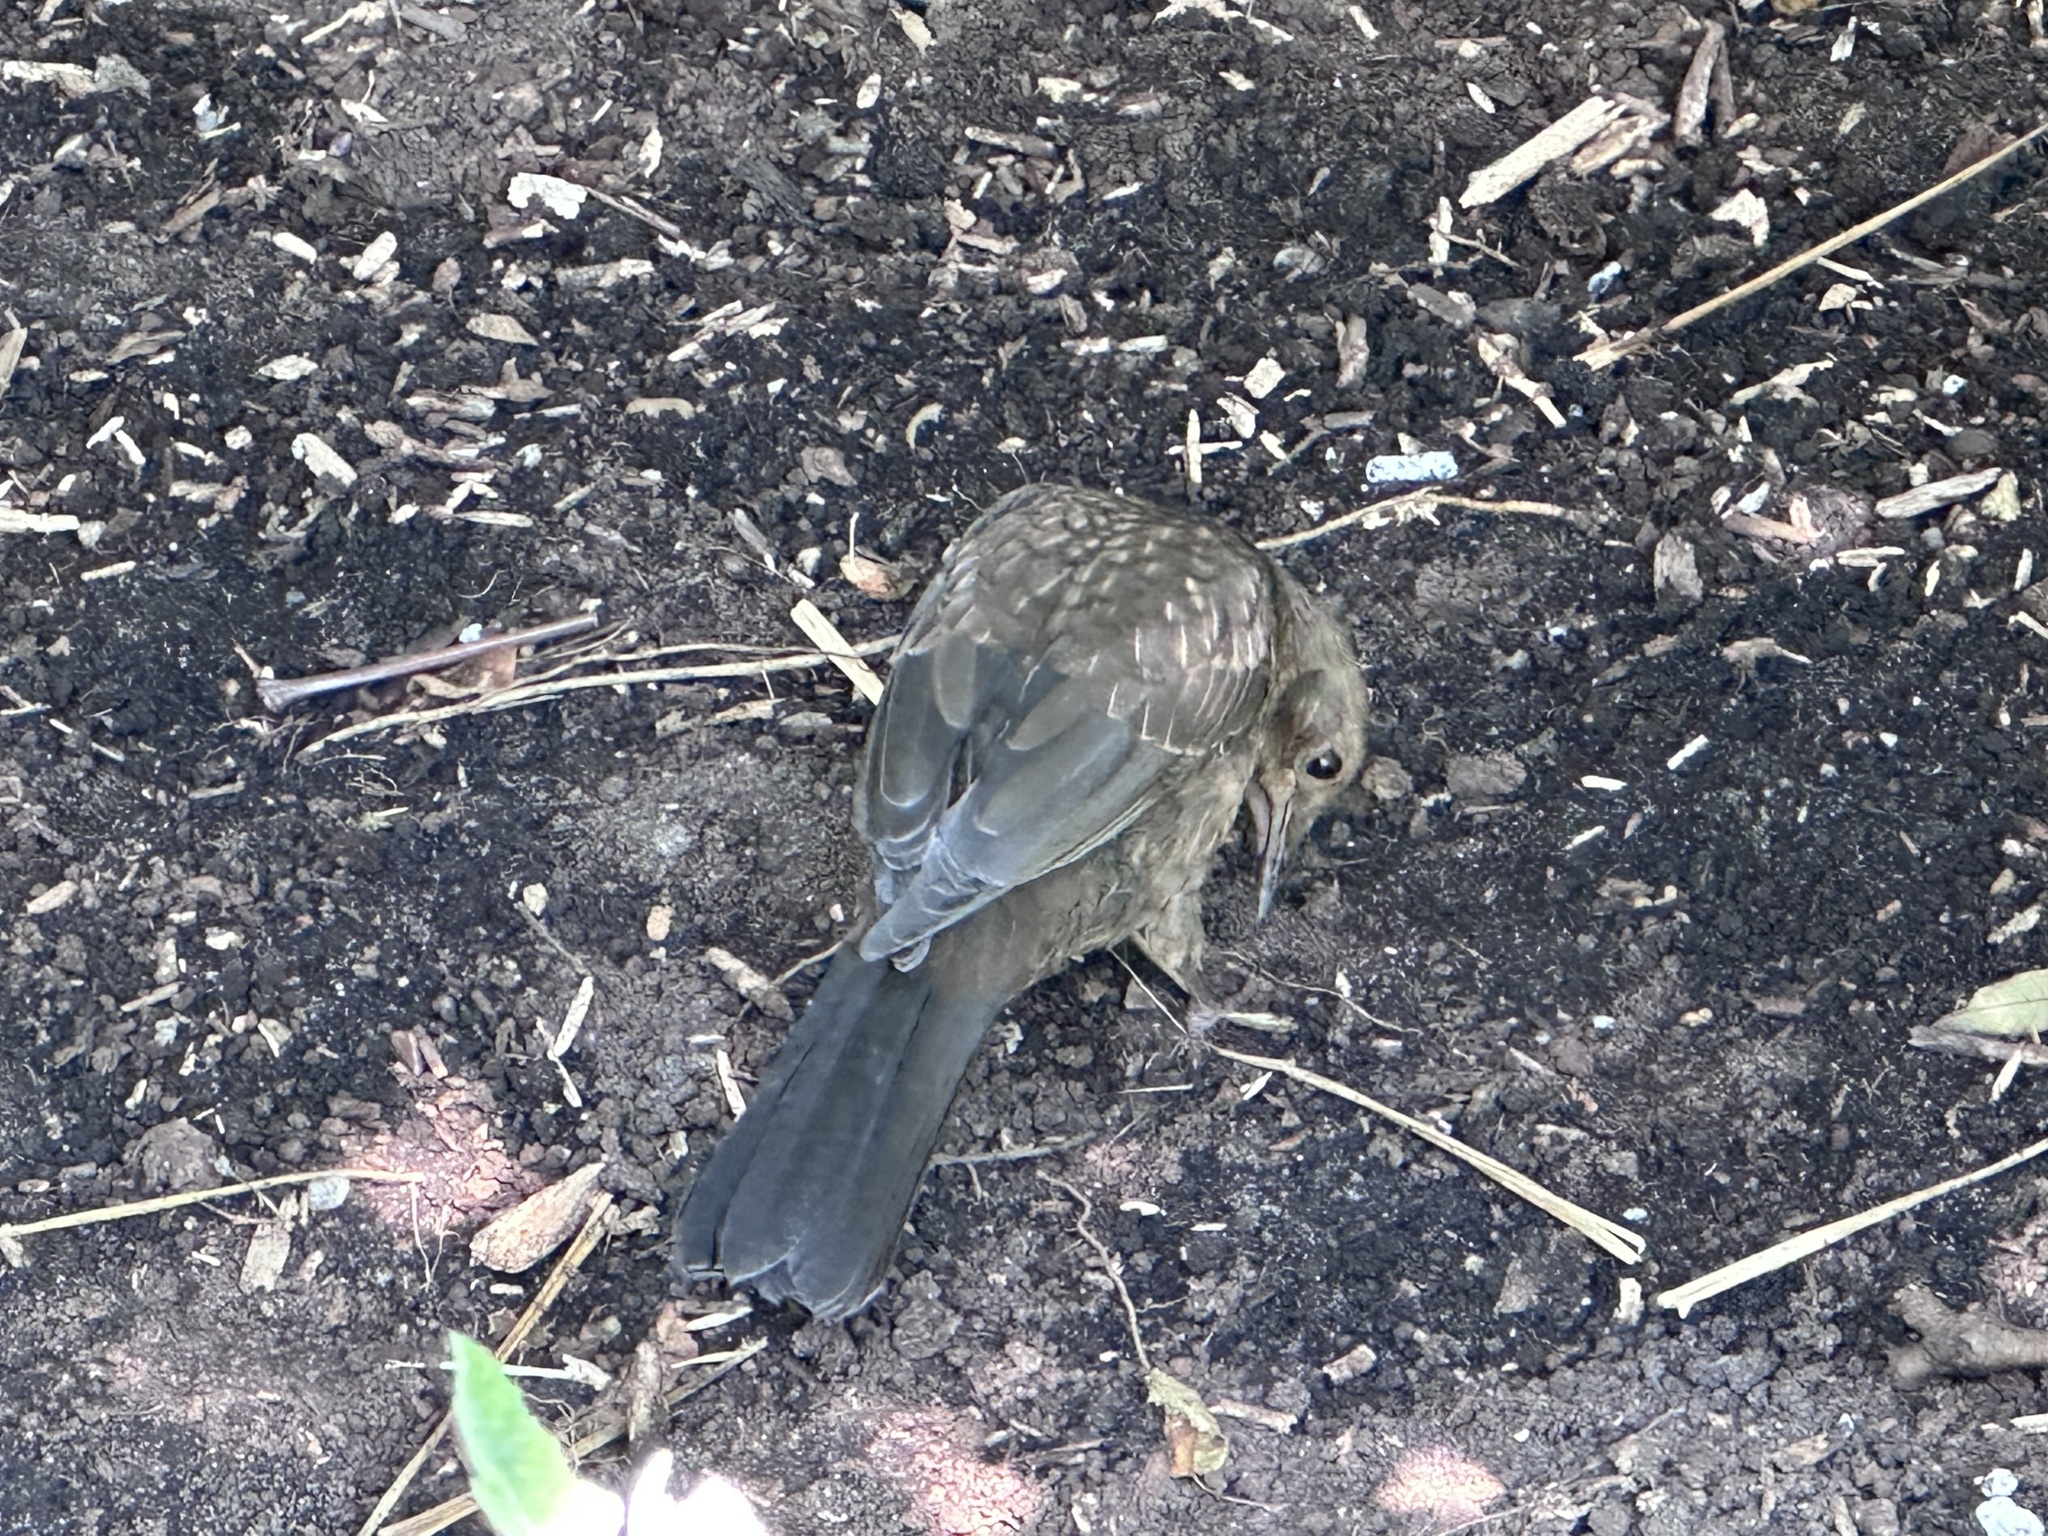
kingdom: Animalia
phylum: Chordata
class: Aves
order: Passeriformes
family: Turdidae
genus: Turdus
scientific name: Turdus merula
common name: Common blackbird
